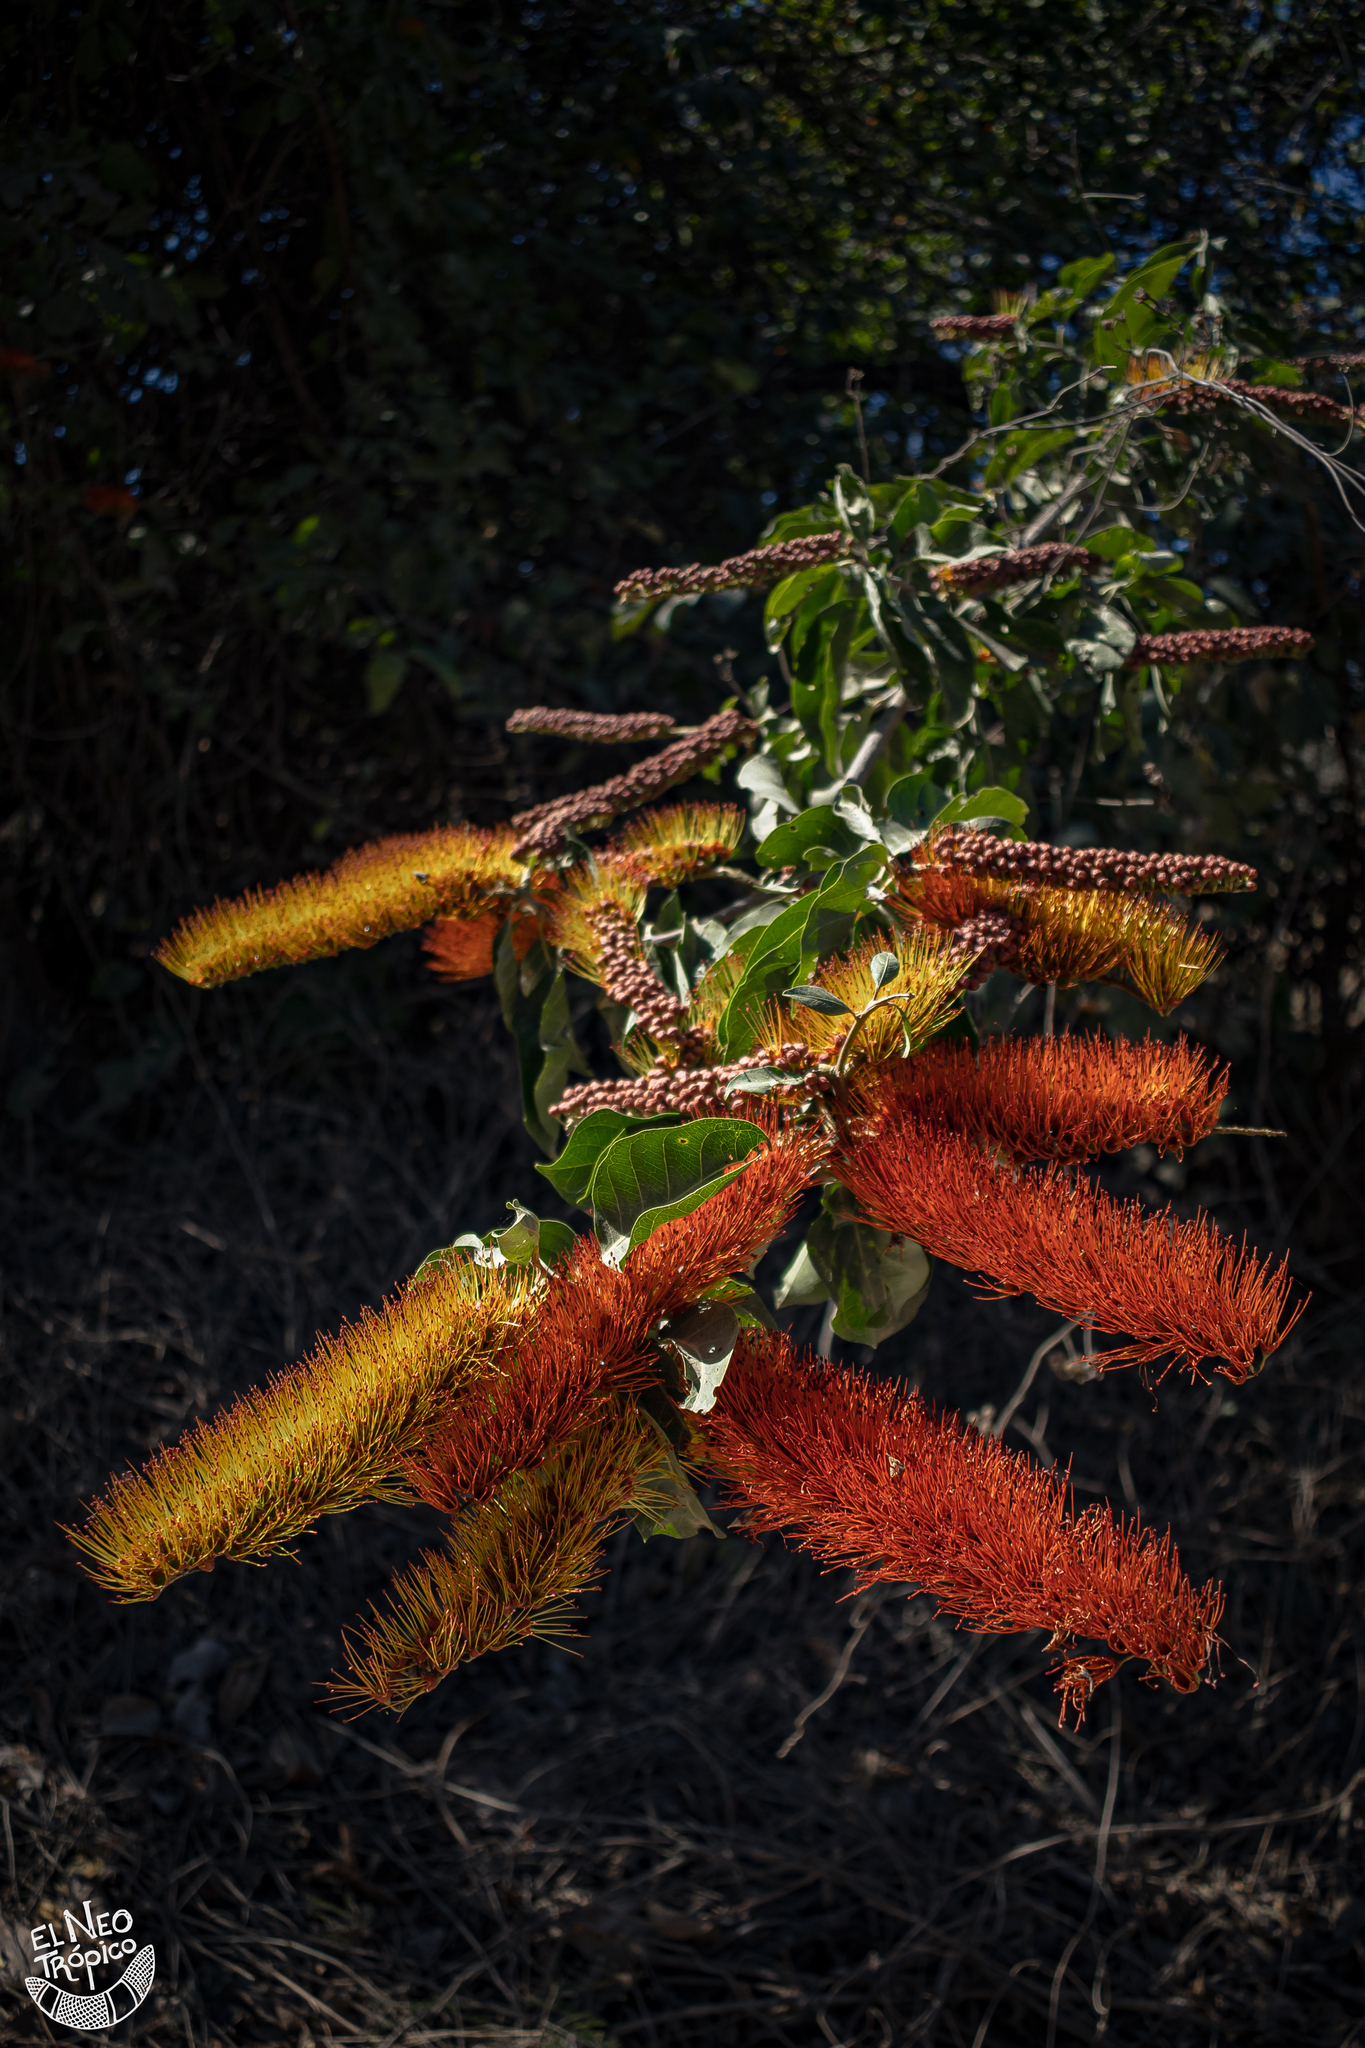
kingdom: Plantae
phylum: Tracheophyta
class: Magnoliopsida
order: Myrtales
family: Combretaceae
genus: Combretum
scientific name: Combretum farinosum
